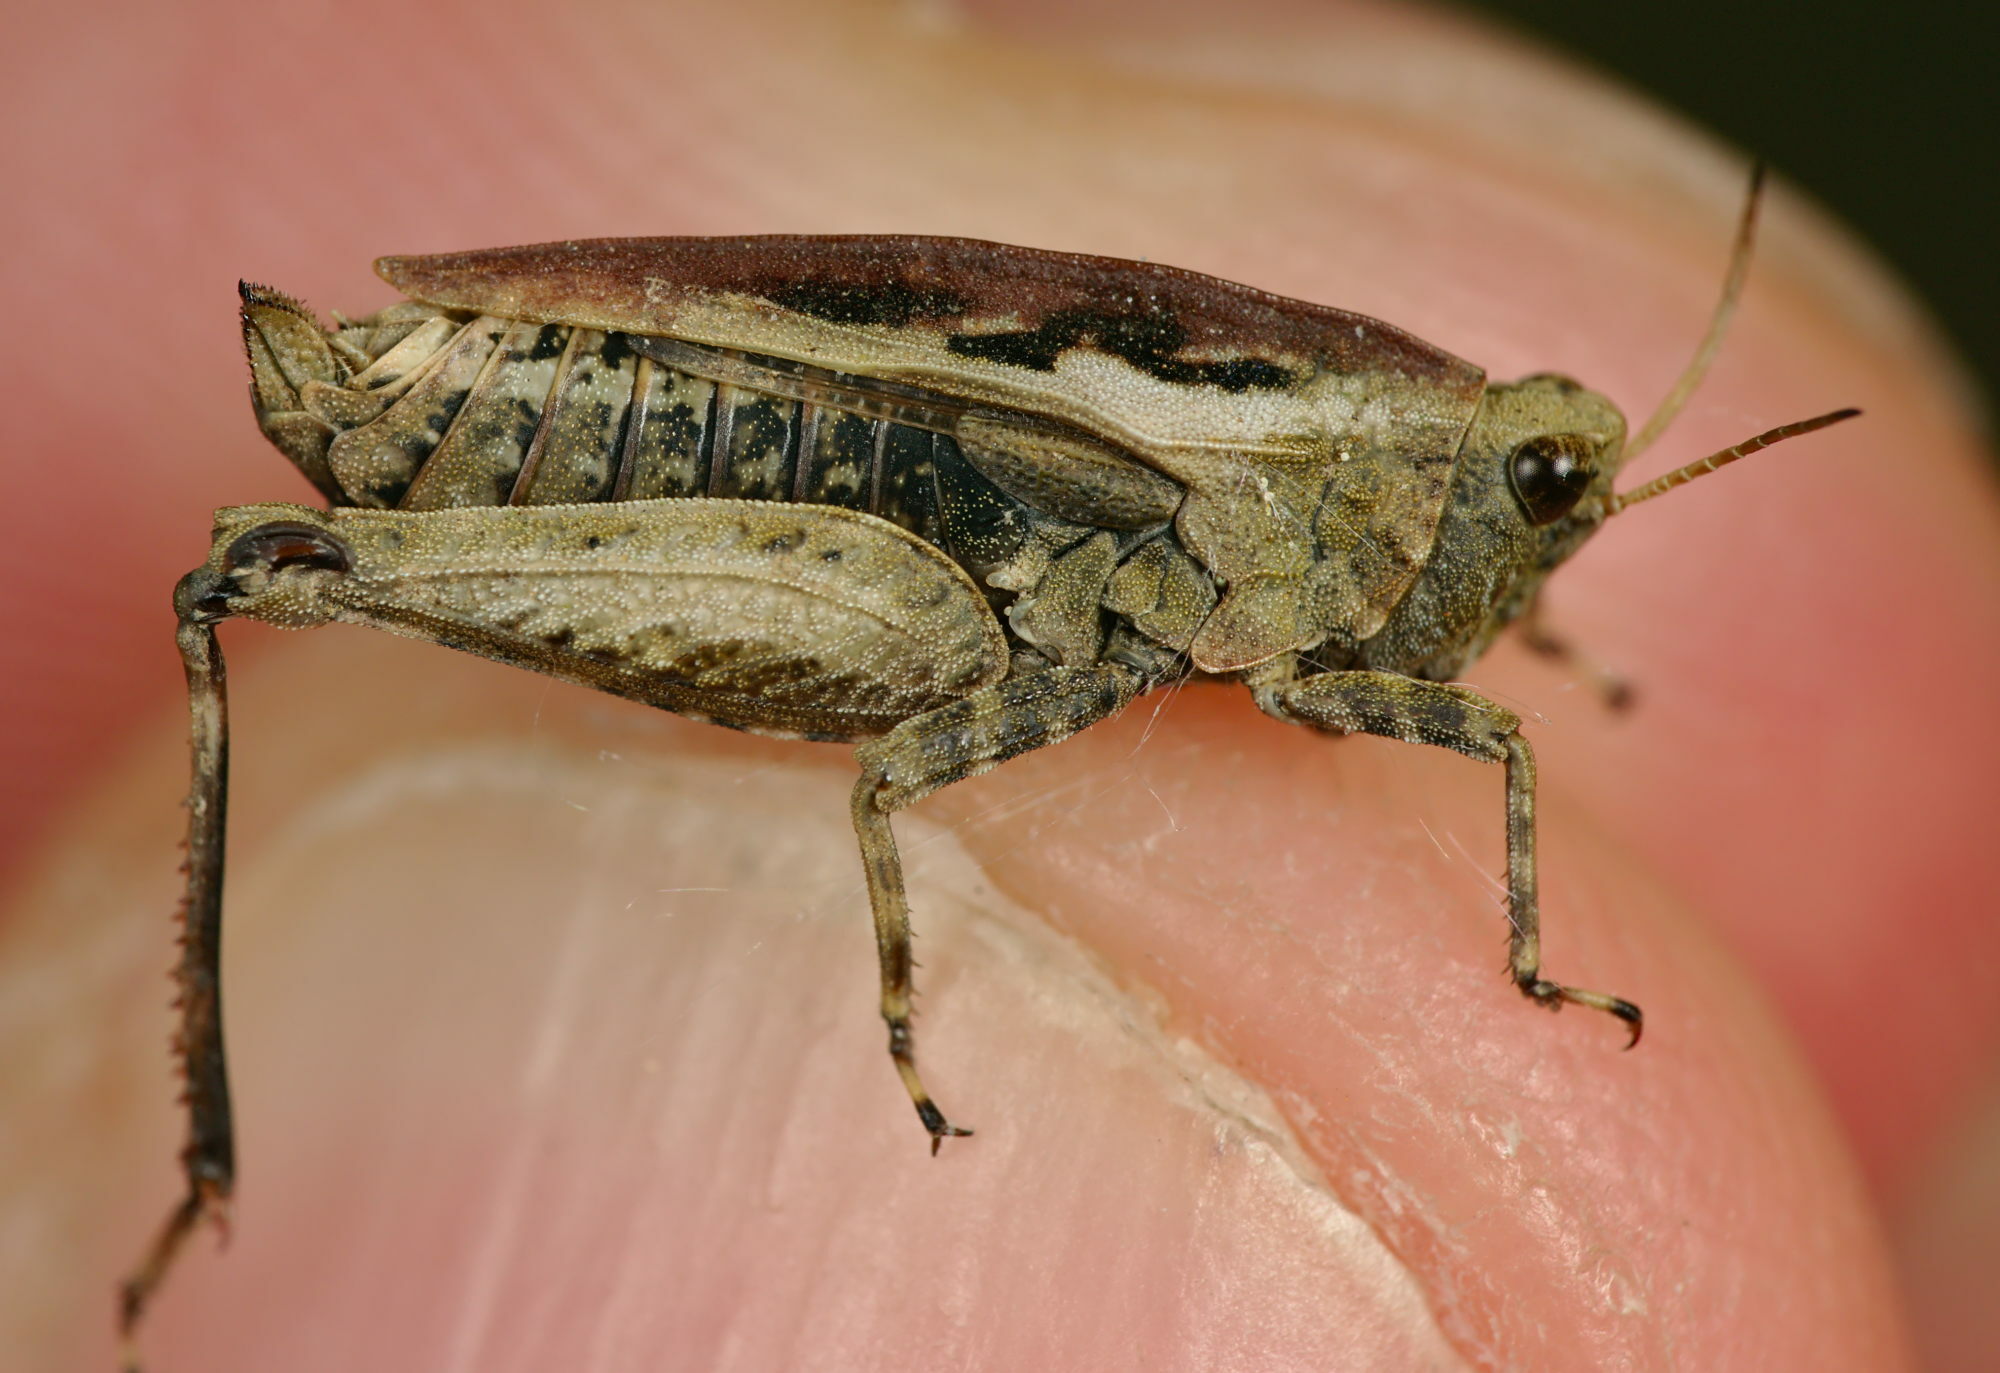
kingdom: Animalia
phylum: Arthropoda
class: Insecta
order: Orthoptera
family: Tetrigidae
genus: Tetrix
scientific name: Tetrix undulata
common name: Common groundhopper
